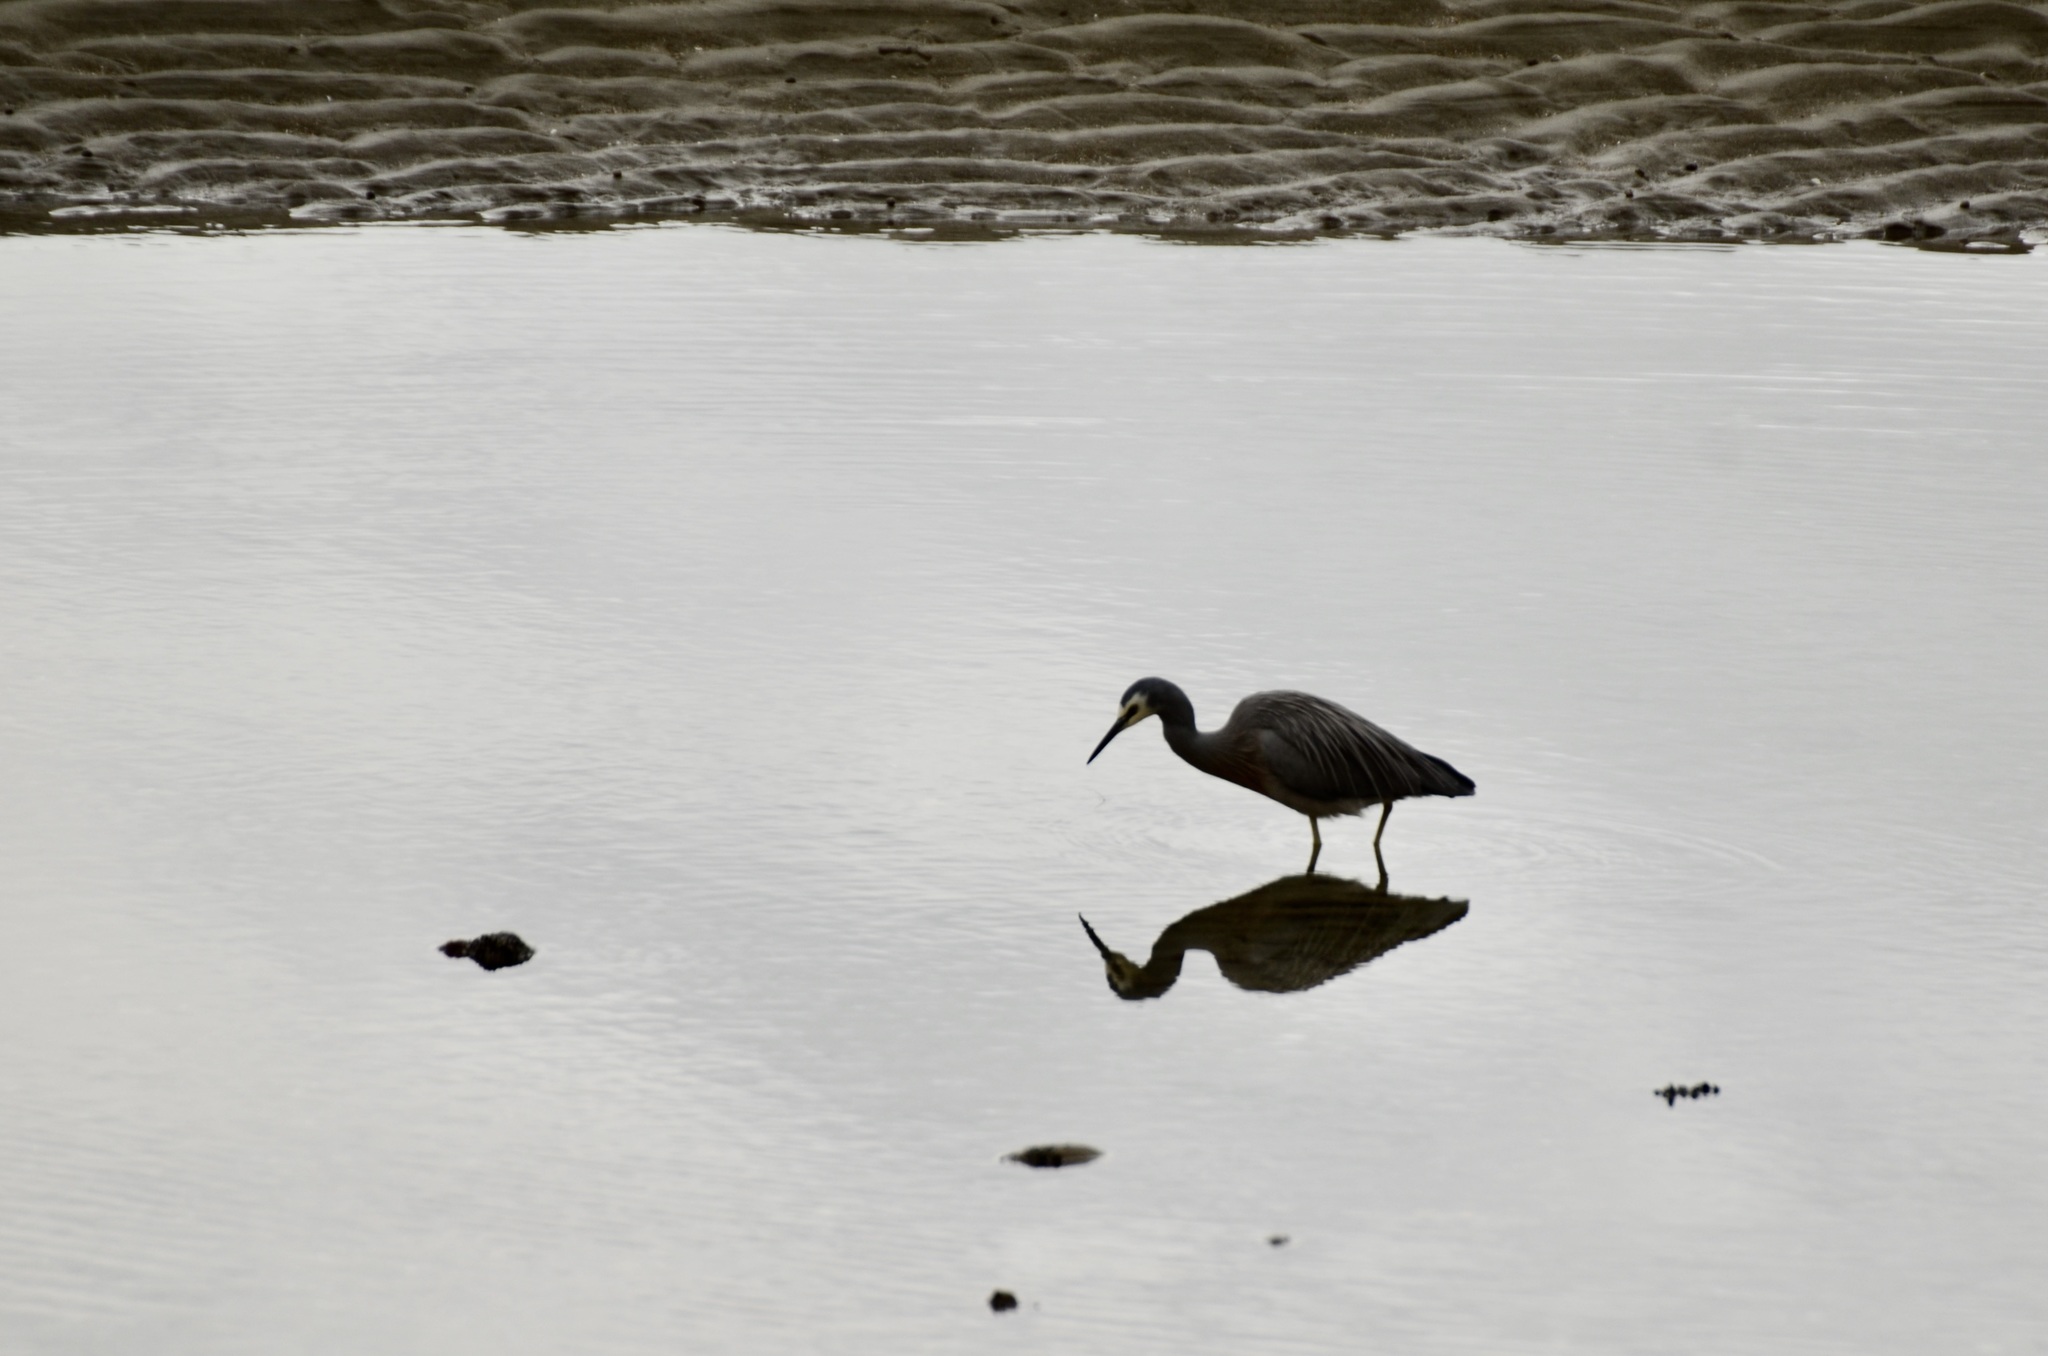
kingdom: Animalia
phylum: Chordata
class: Aves
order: Pelecaniformes
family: Ardeidae
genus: Egretta
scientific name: Egretta novaehollandiae
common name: White-faced heron
